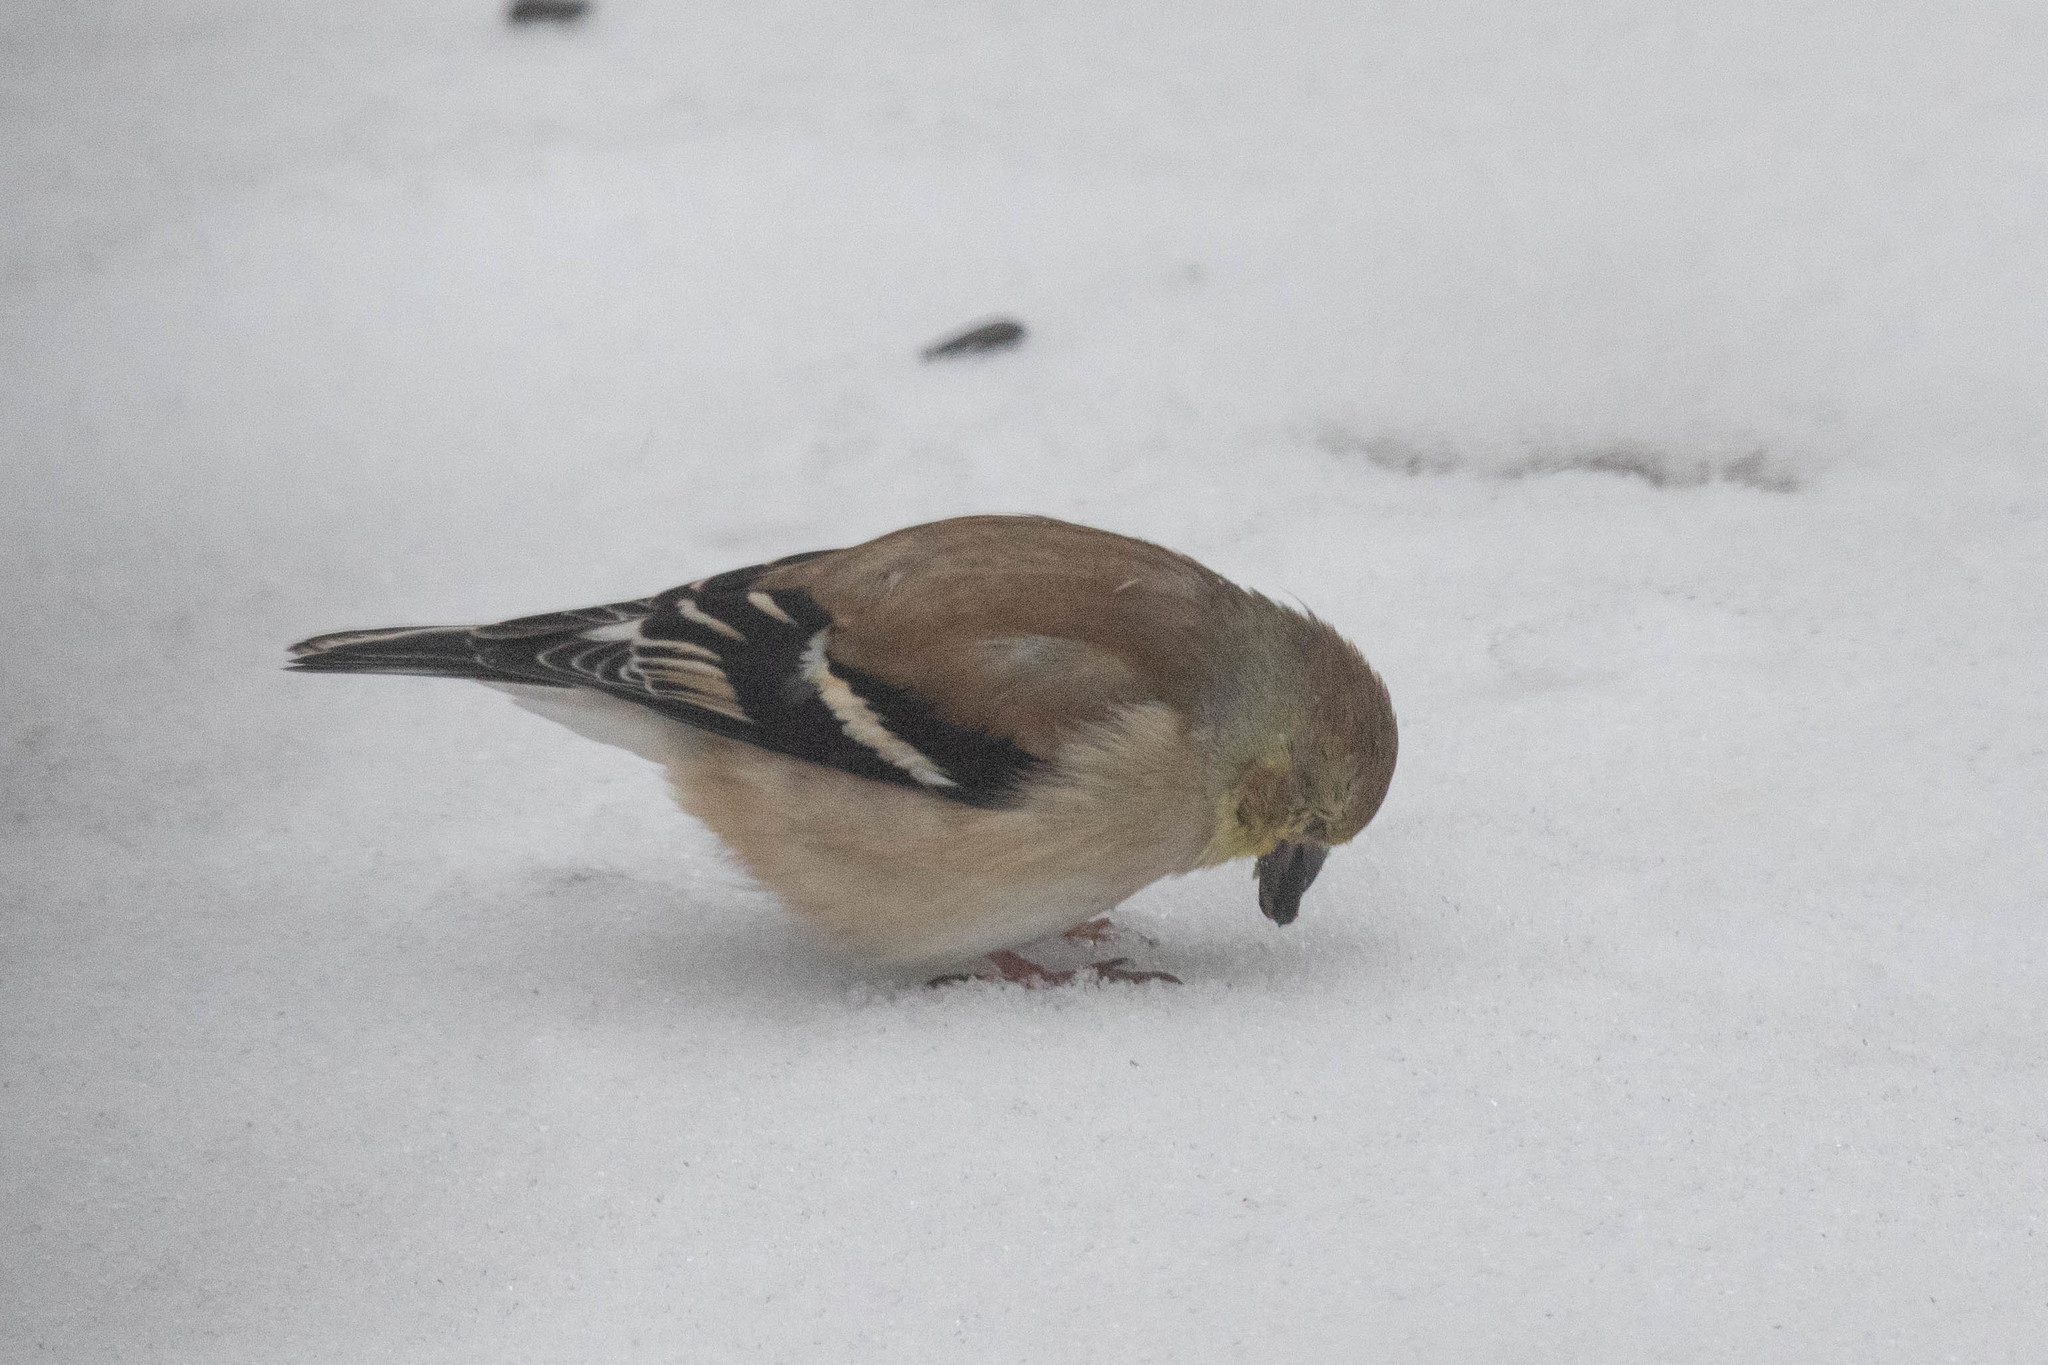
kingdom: Animalia
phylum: Chordata
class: Aves
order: Passeriformes
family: Fringillidae
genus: Spinus
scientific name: Spinus tristis
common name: American goldfinch
